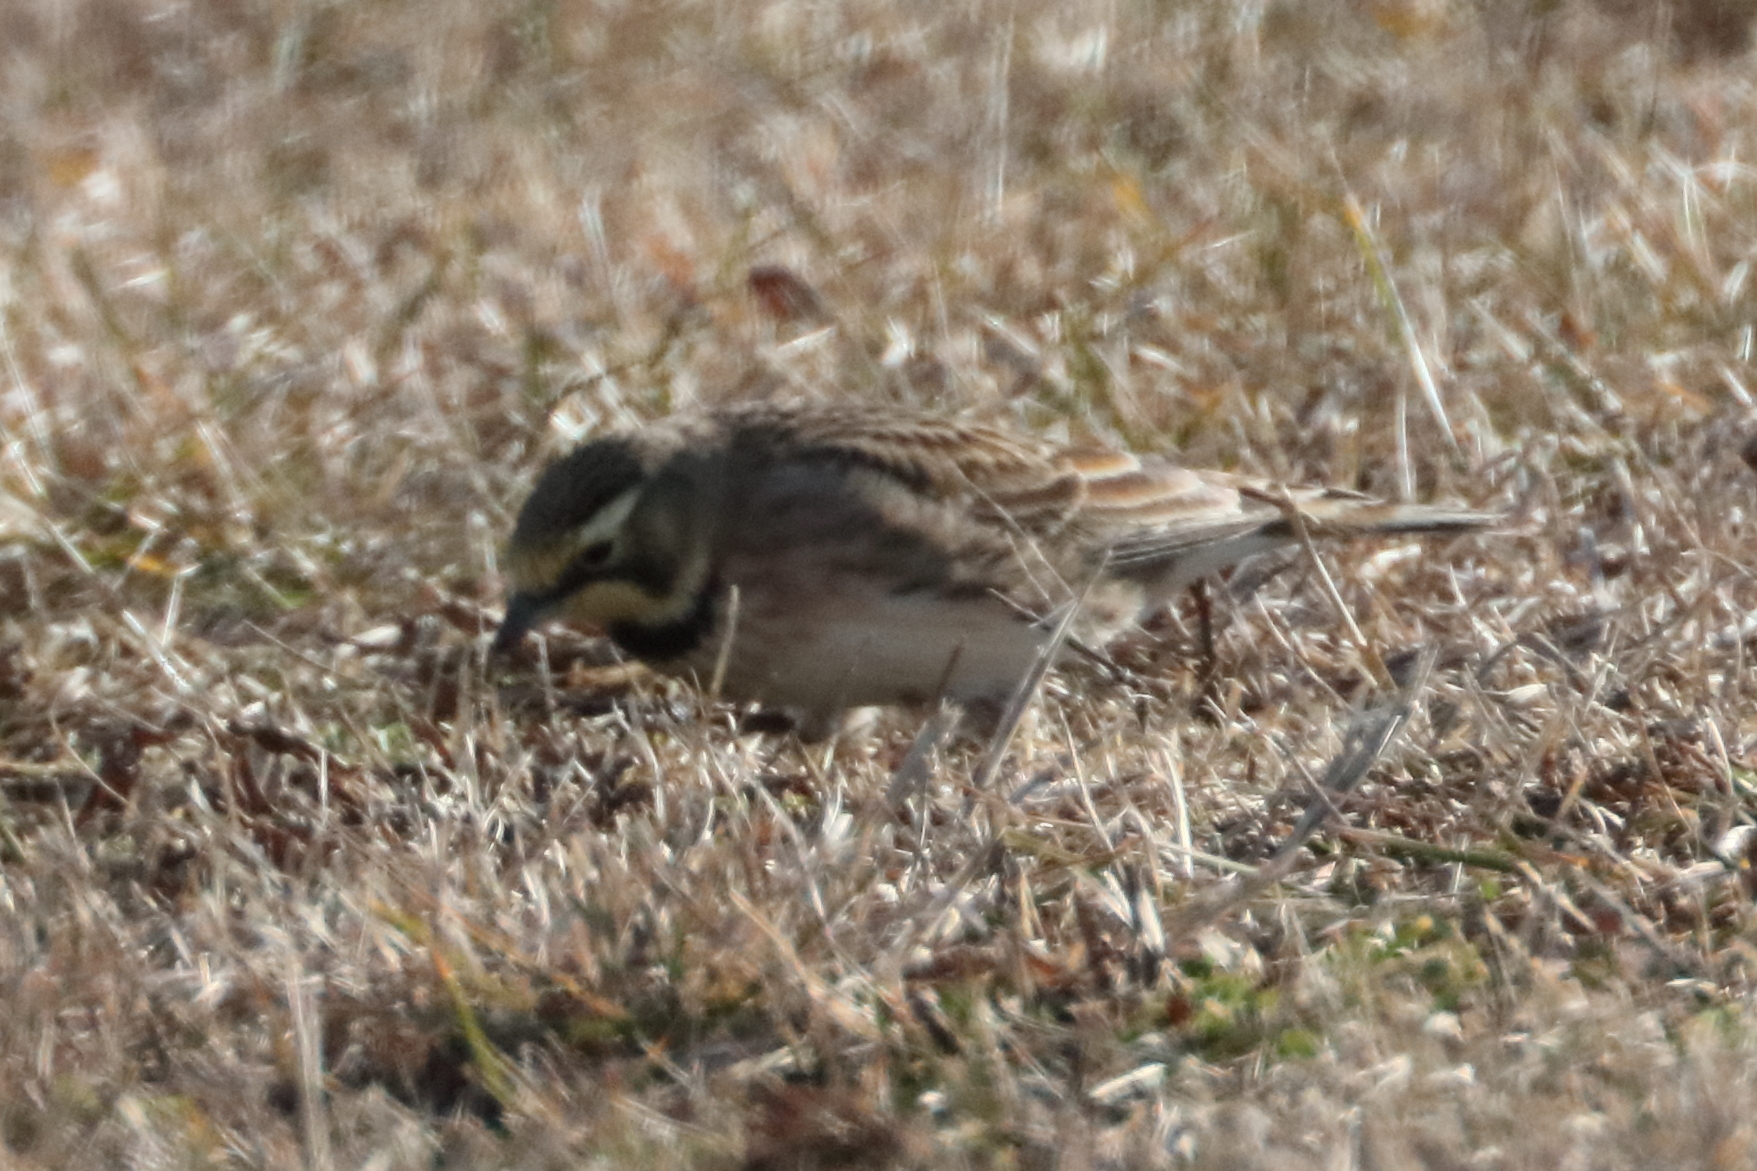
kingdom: Animalia
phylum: Chordata
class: Aves
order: Passeriformes
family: Alaudidae
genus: Eremophila
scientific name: Eremophila alpestris
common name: Horned lark
